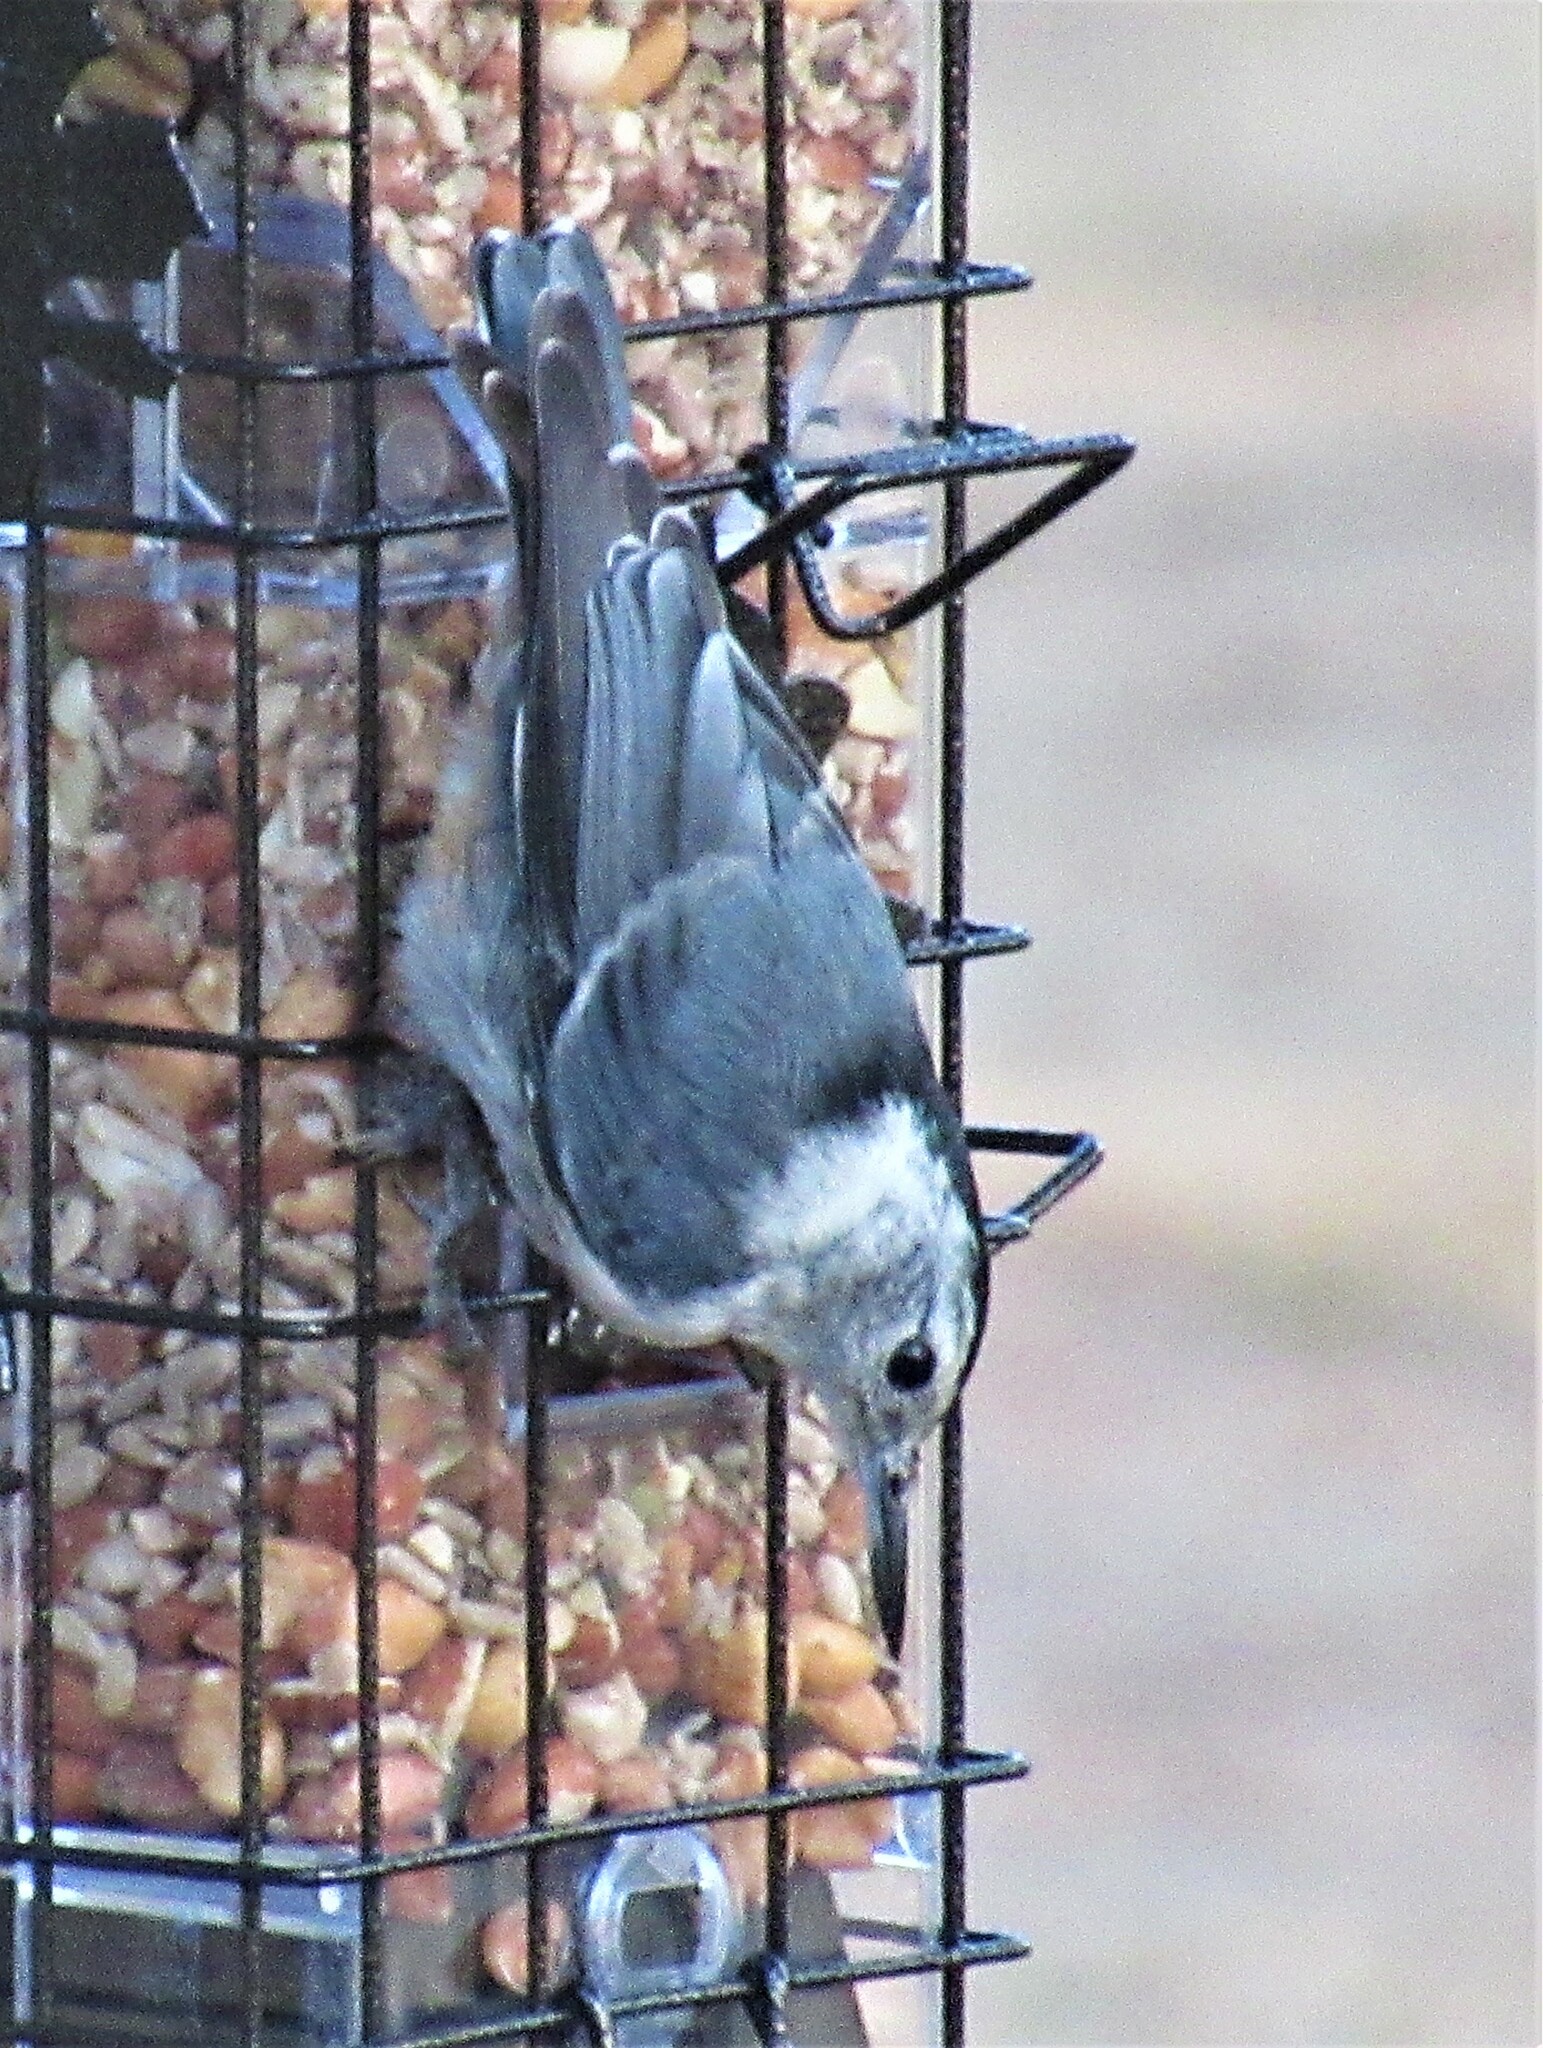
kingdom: Animalia
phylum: Chordata
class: Aves
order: Passeriformes
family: Sittidae
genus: Sitta
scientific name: Sitta carolinensis
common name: White-breasted nuthatch
